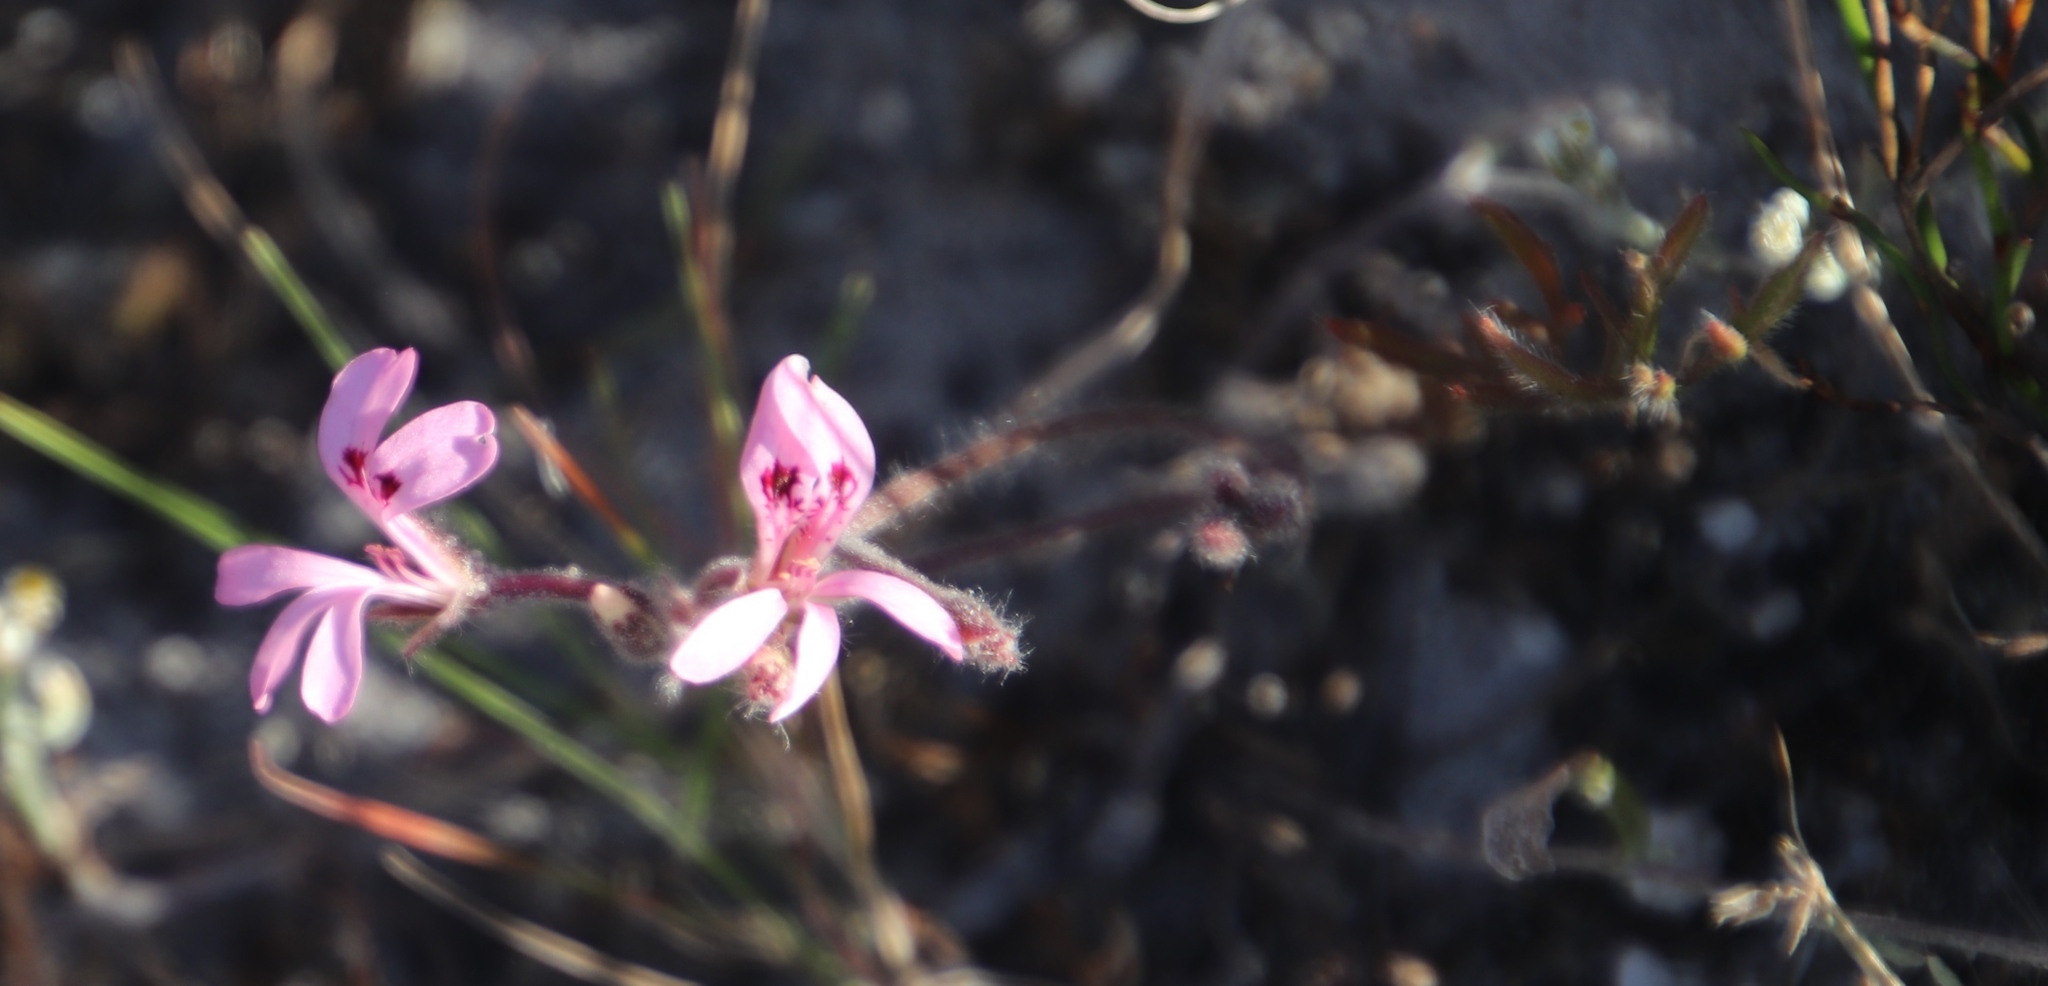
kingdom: Plantae
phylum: Tracheophyta
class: Magnoliopsida
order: Geraniales
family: Geraniaceae
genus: Pelargonium
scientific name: Pelargonium psammophilum
